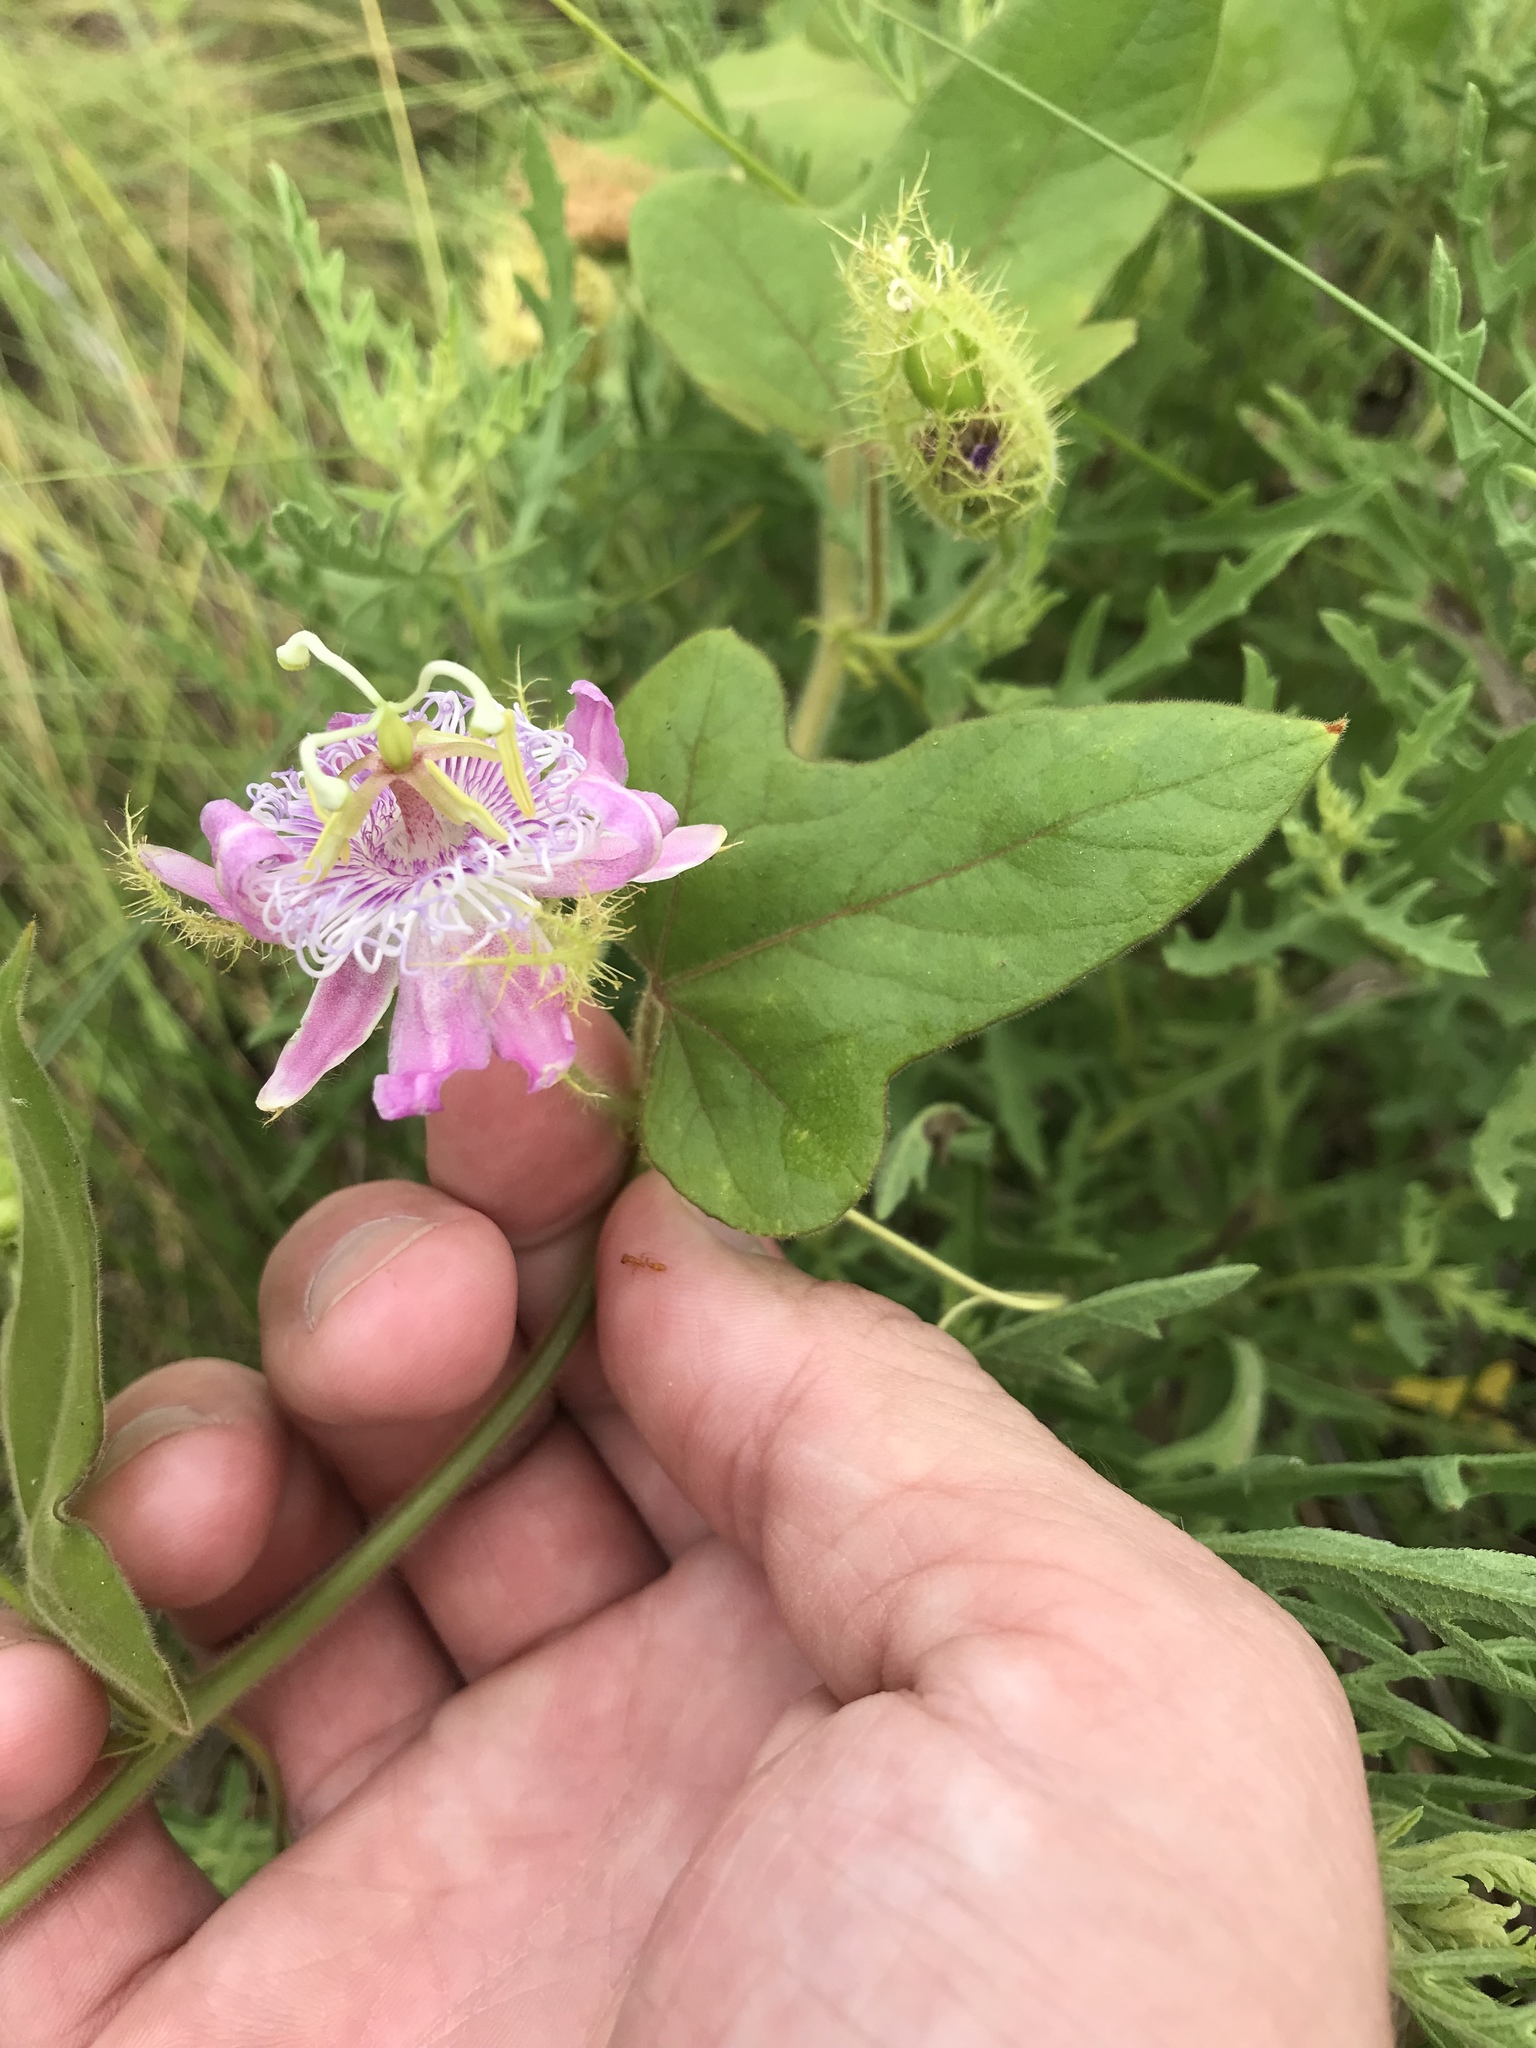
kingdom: Plantae
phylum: Tracheophyta
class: Magnoliopsida
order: Malpighiales
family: Passifloraceae
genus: Passiflora
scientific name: Passiflora
